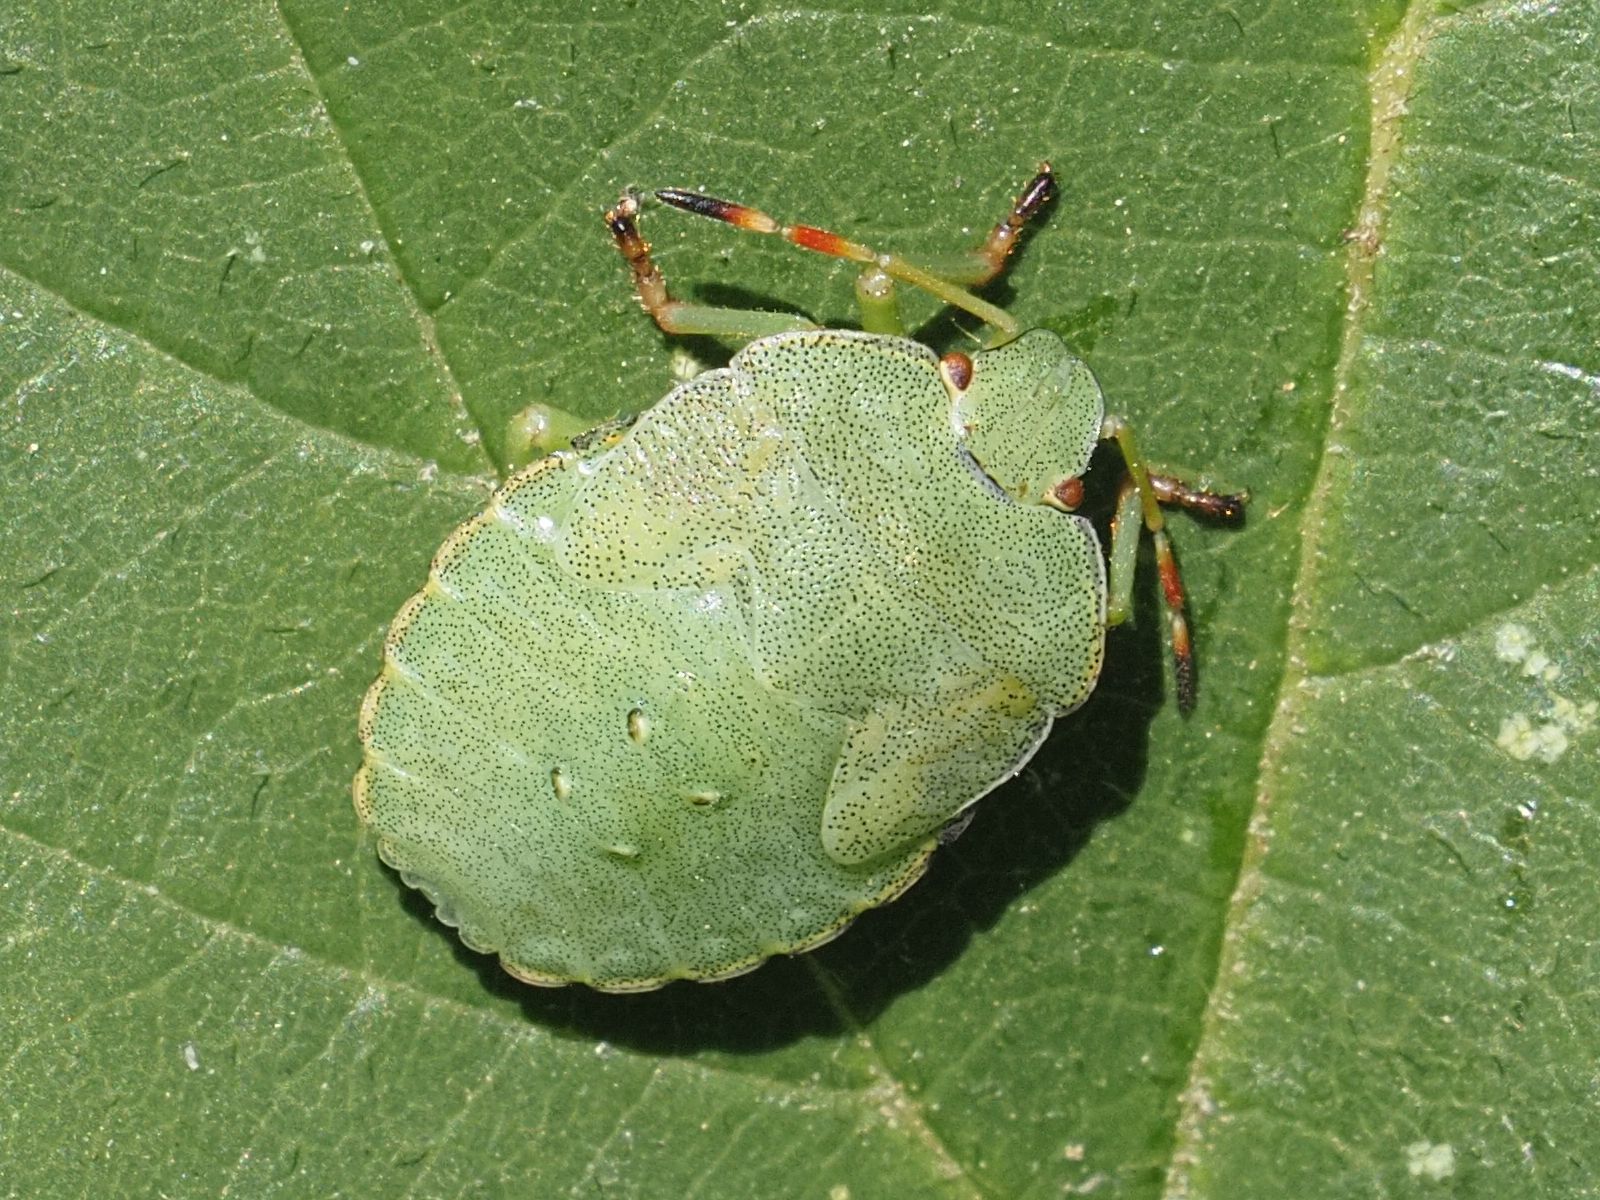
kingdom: Animalia
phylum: Arthropoda
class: Insecta
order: Hemiptera
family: Pentatomidae
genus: Palomena
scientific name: Palomena prasina
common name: Green shieldbug
